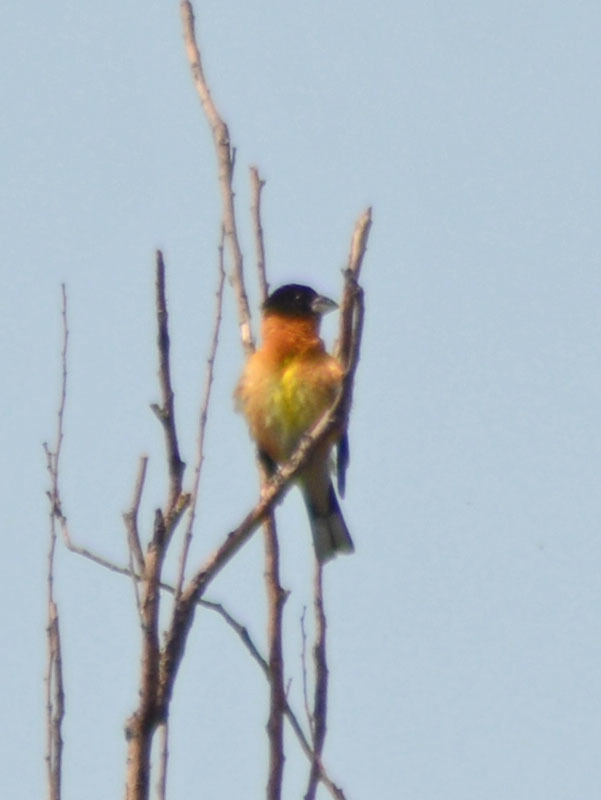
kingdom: Animalia
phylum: Chordata
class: Aves
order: Passeriformes
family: Cardinalidae
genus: Pheucticus
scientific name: Pheucticus melanocephalus
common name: Black-headed grosbeak
